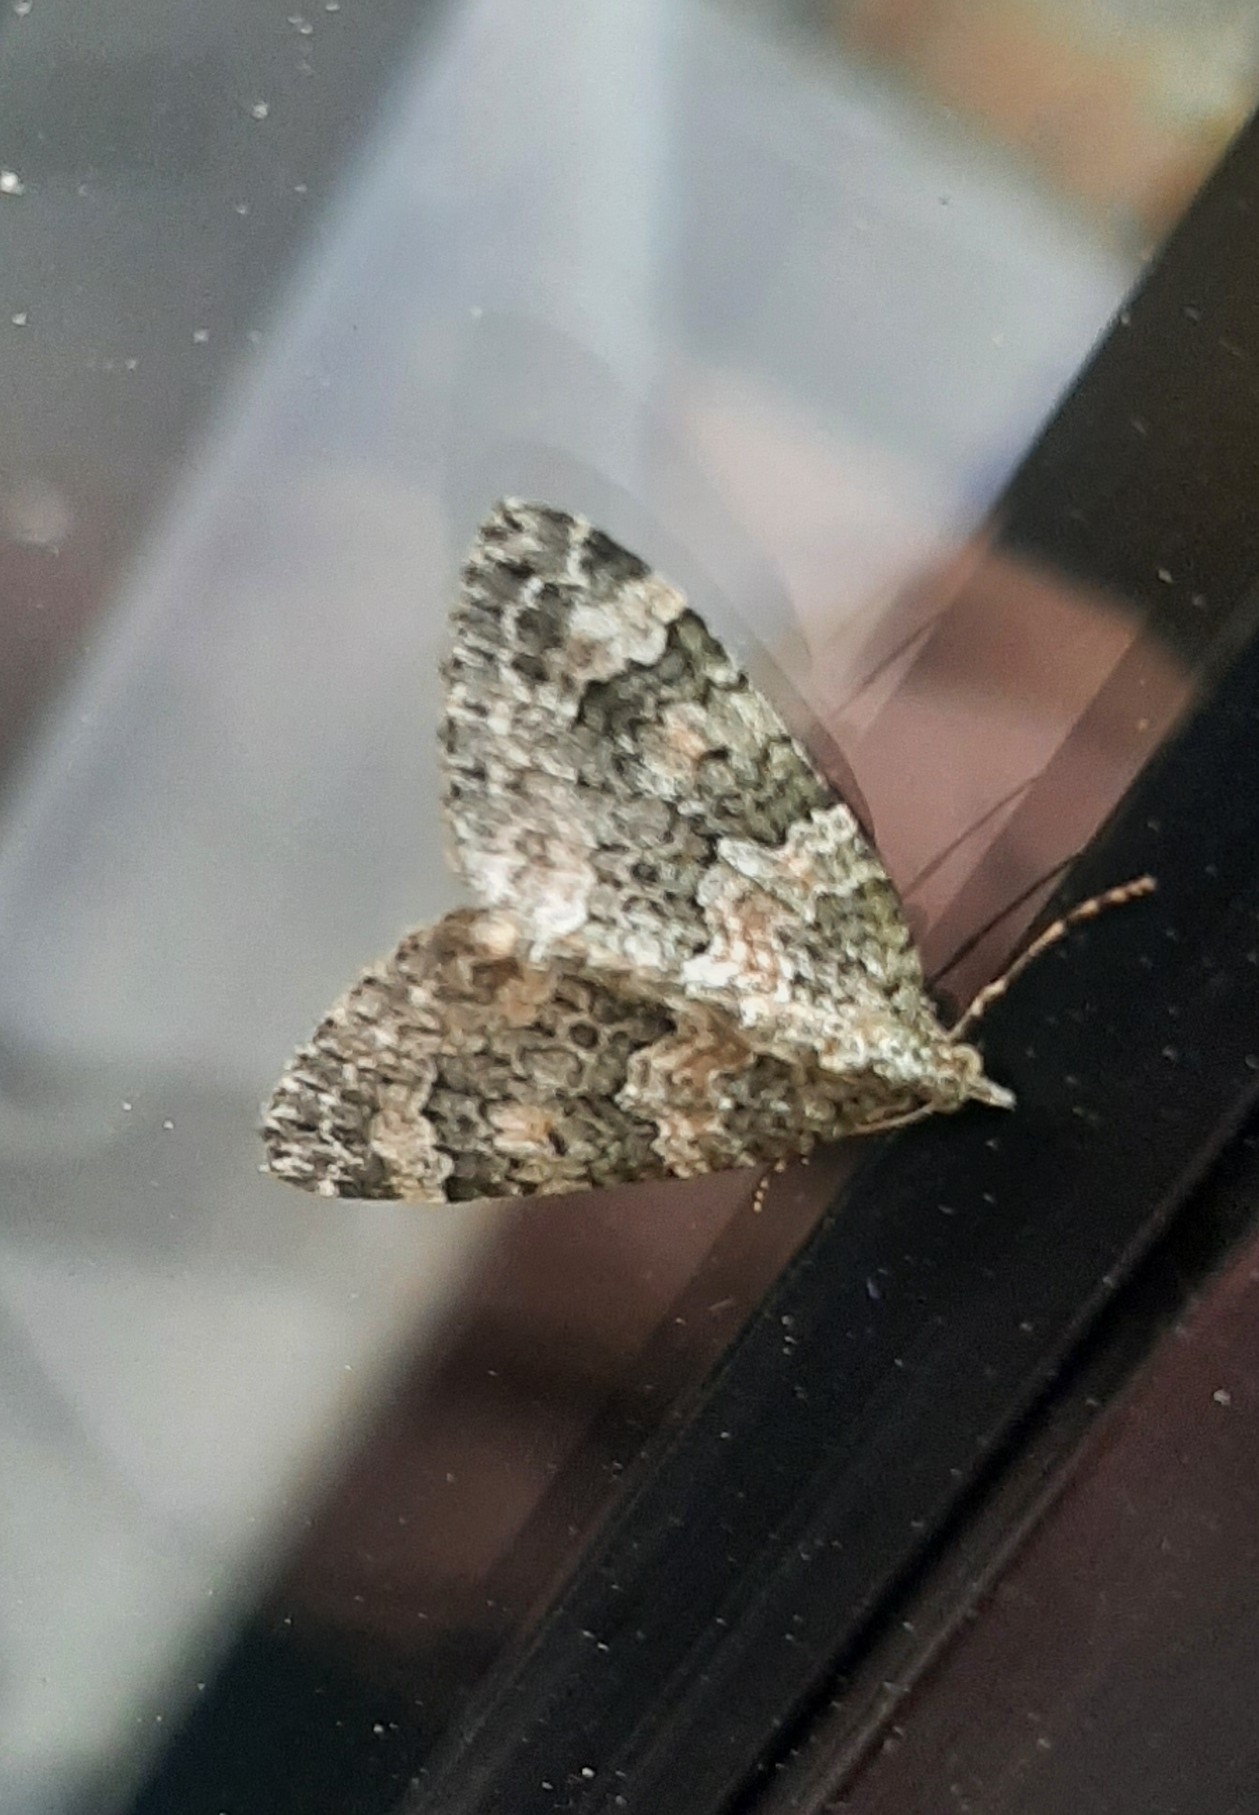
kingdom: Animalia
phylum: Arthropoda
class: Insecta
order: Lepidoptera
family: Geometridae
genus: Chloroclysta
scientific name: Chloroclysta miata
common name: Autumn green carpet
